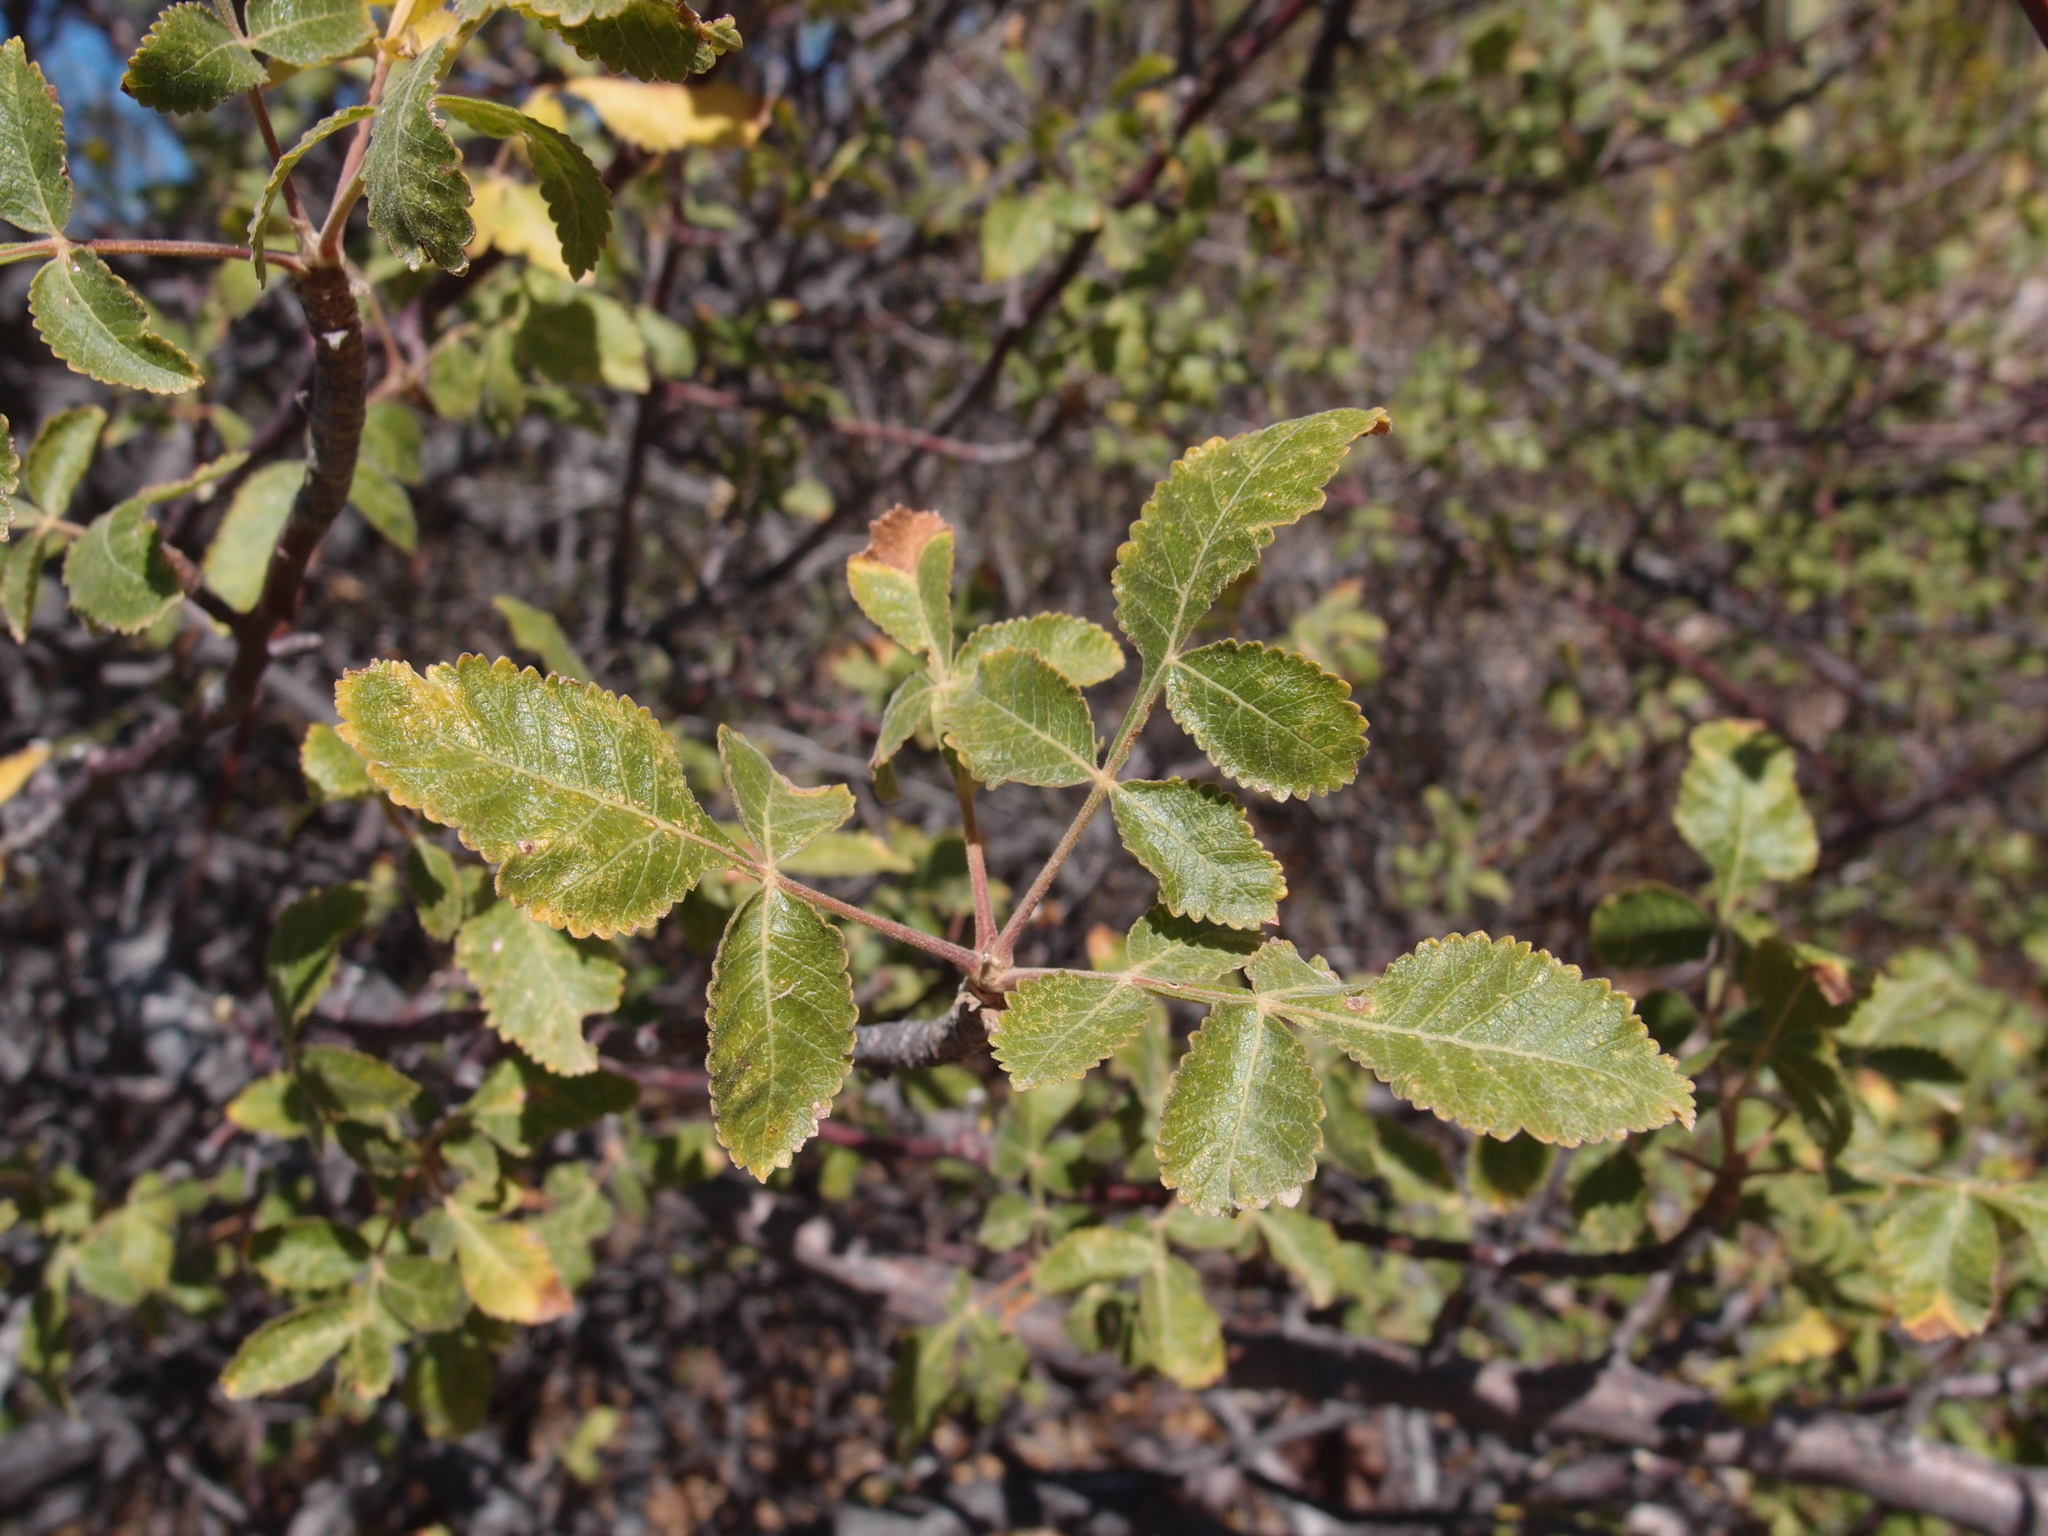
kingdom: Plantae
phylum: Tracheophyta
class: Magnoliopsida
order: Sapindales
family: Burseraceae
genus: Bursera
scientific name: Bursera hindsiana
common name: Red elephant tree
